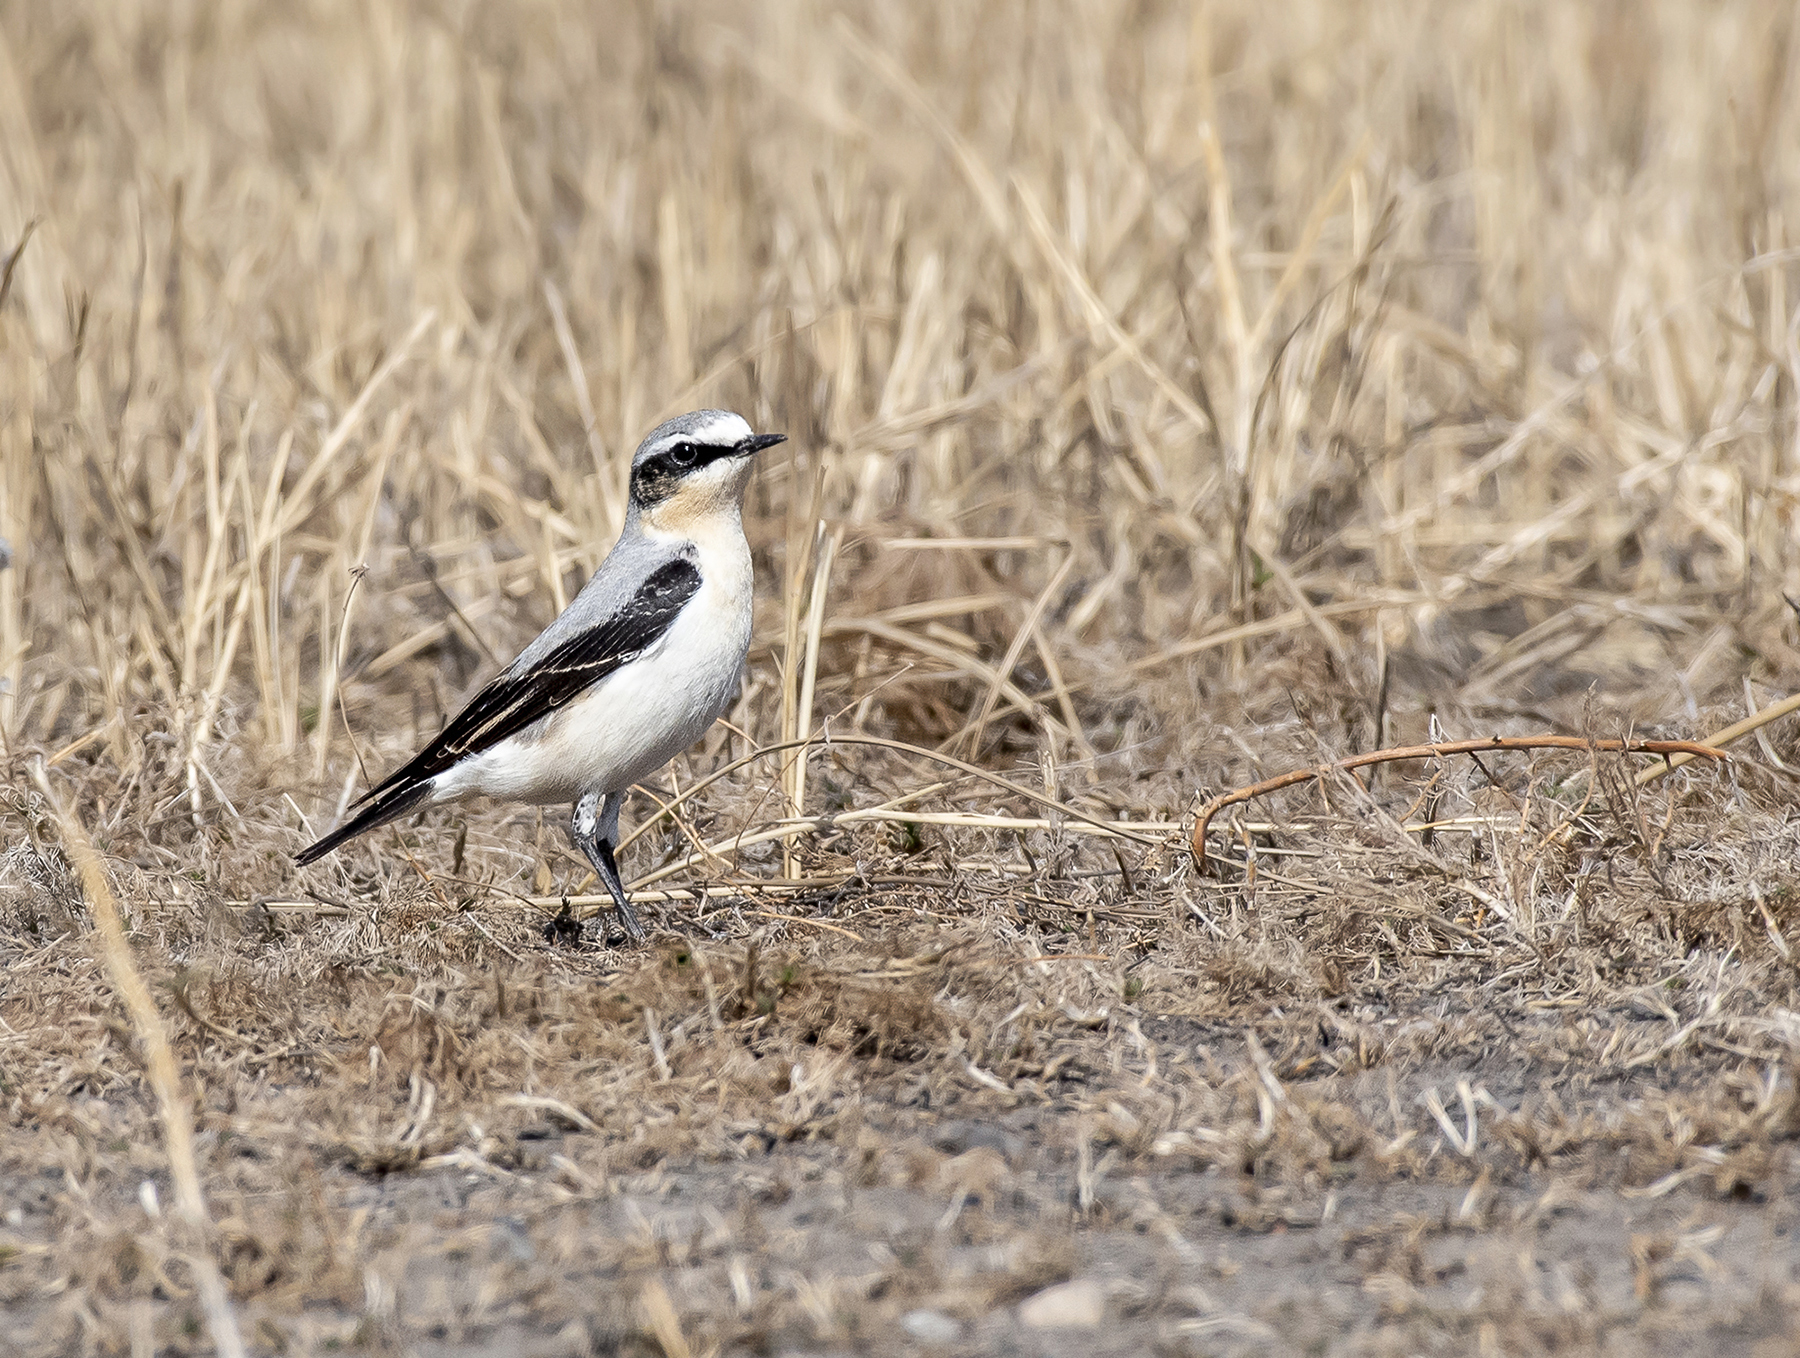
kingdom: Animalia
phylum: Chordata
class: Aves
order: Passeriformes
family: Muscicapidae
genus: Oenanthe
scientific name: Oenanthe oenanthe
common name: Northern wheatear
